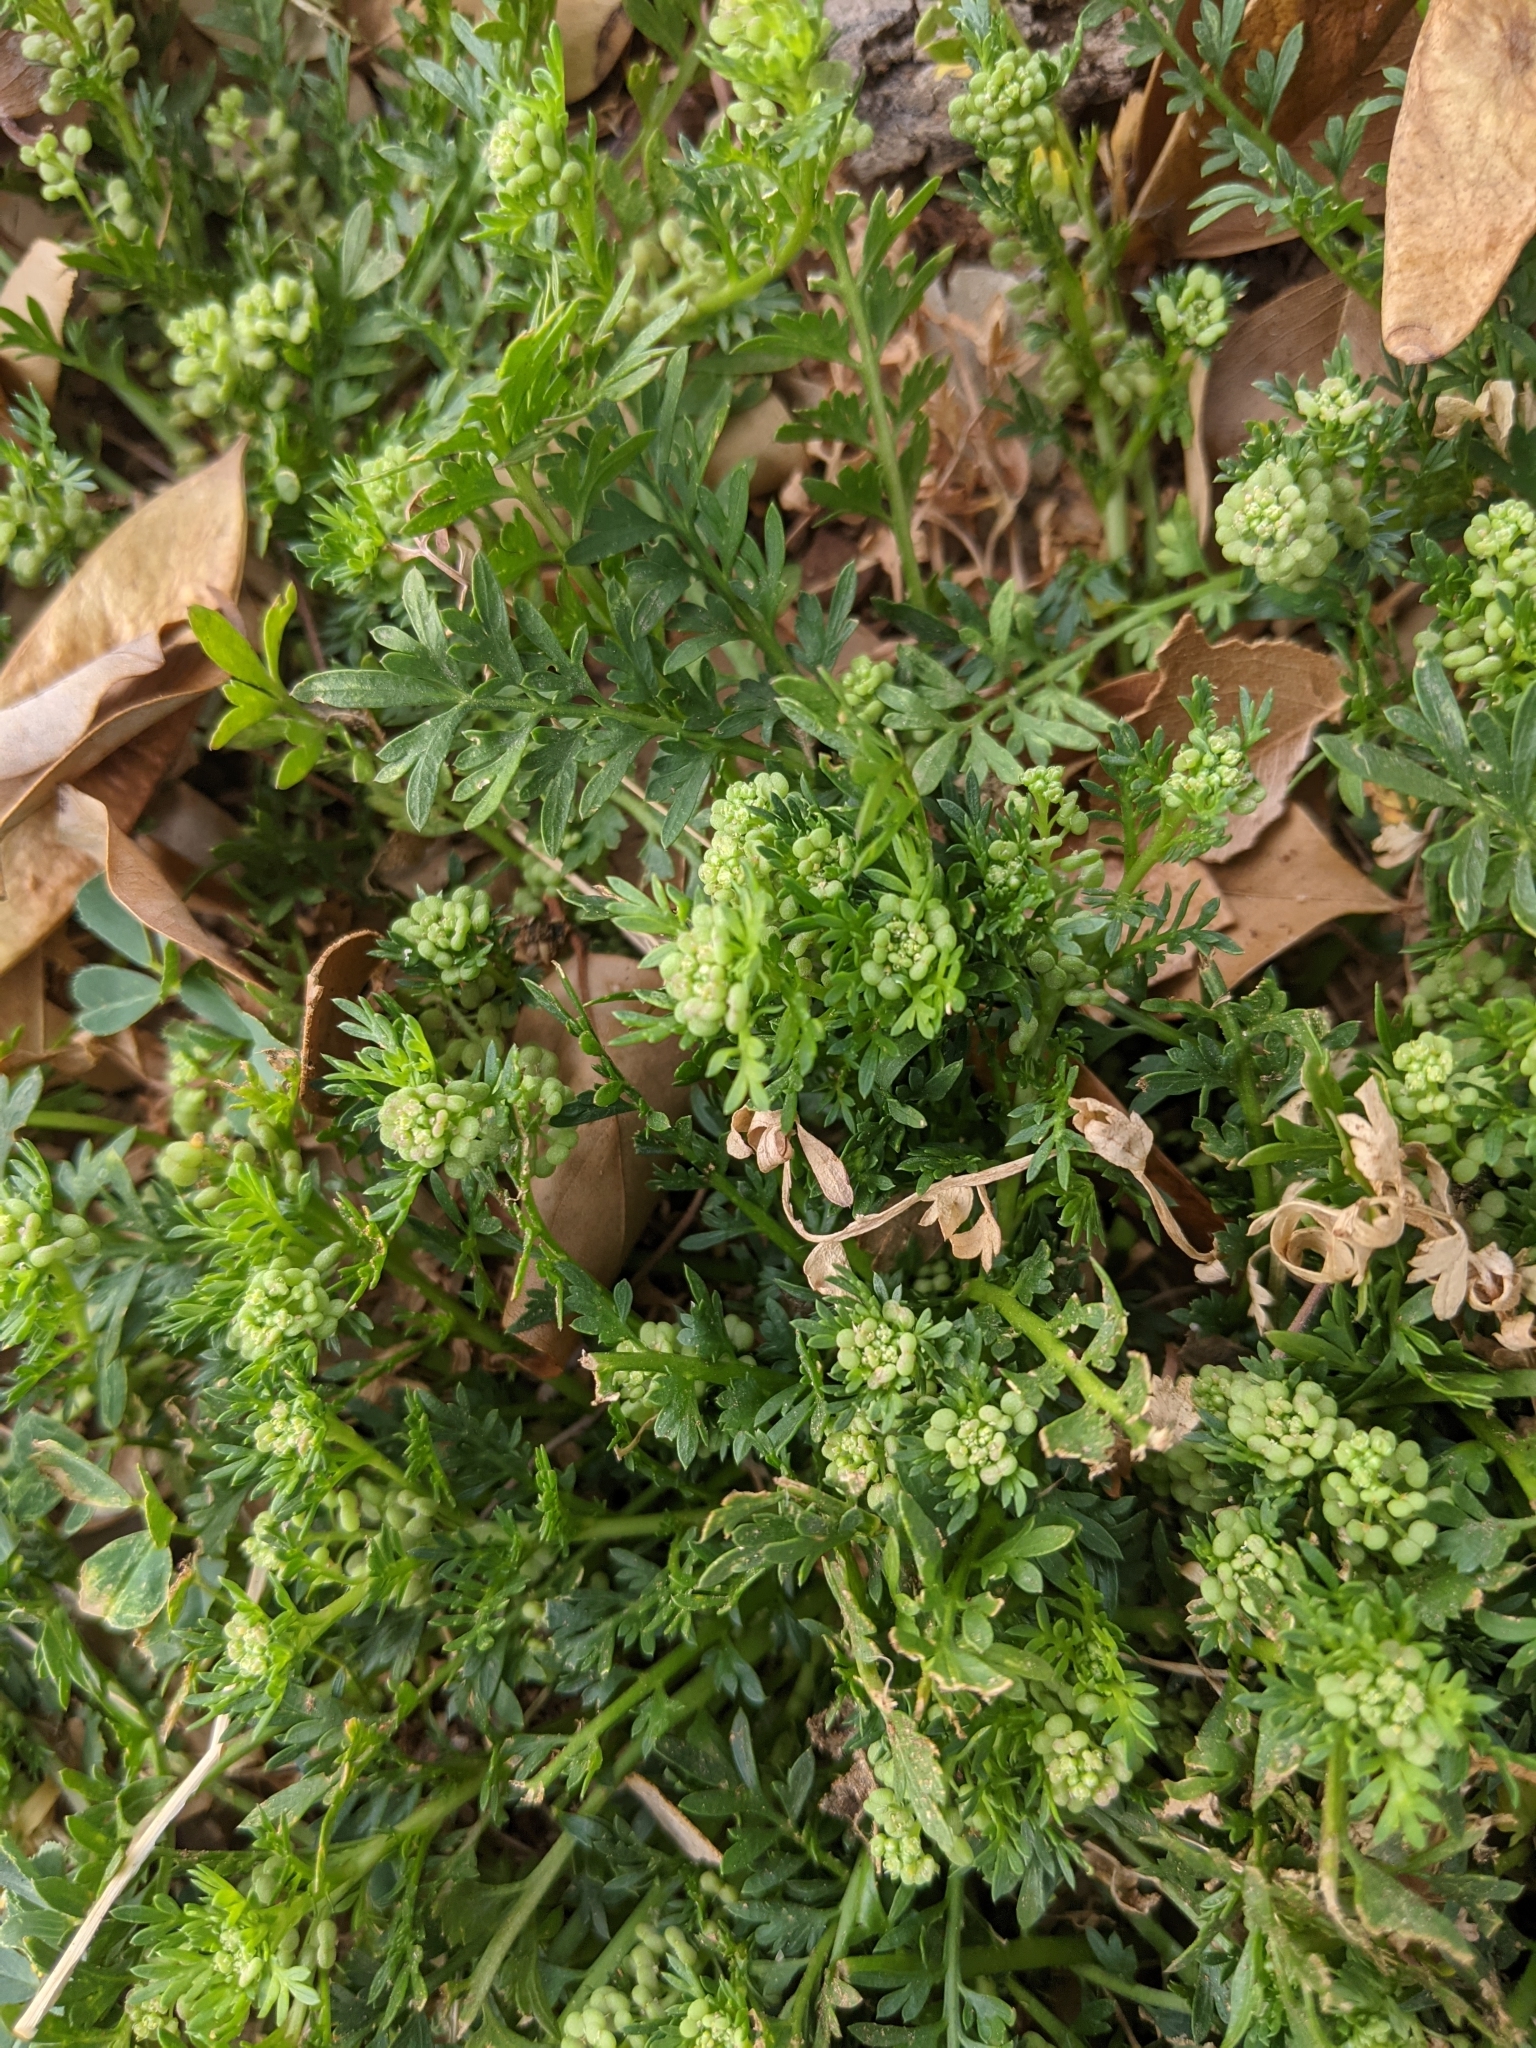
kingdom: Plantae
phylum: Tracheophyta
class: Magnoliopsida
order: Brassicales
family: Brassicaceae
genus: Lepidium
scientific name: Lepidium didymum
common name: Lesser swinecress
